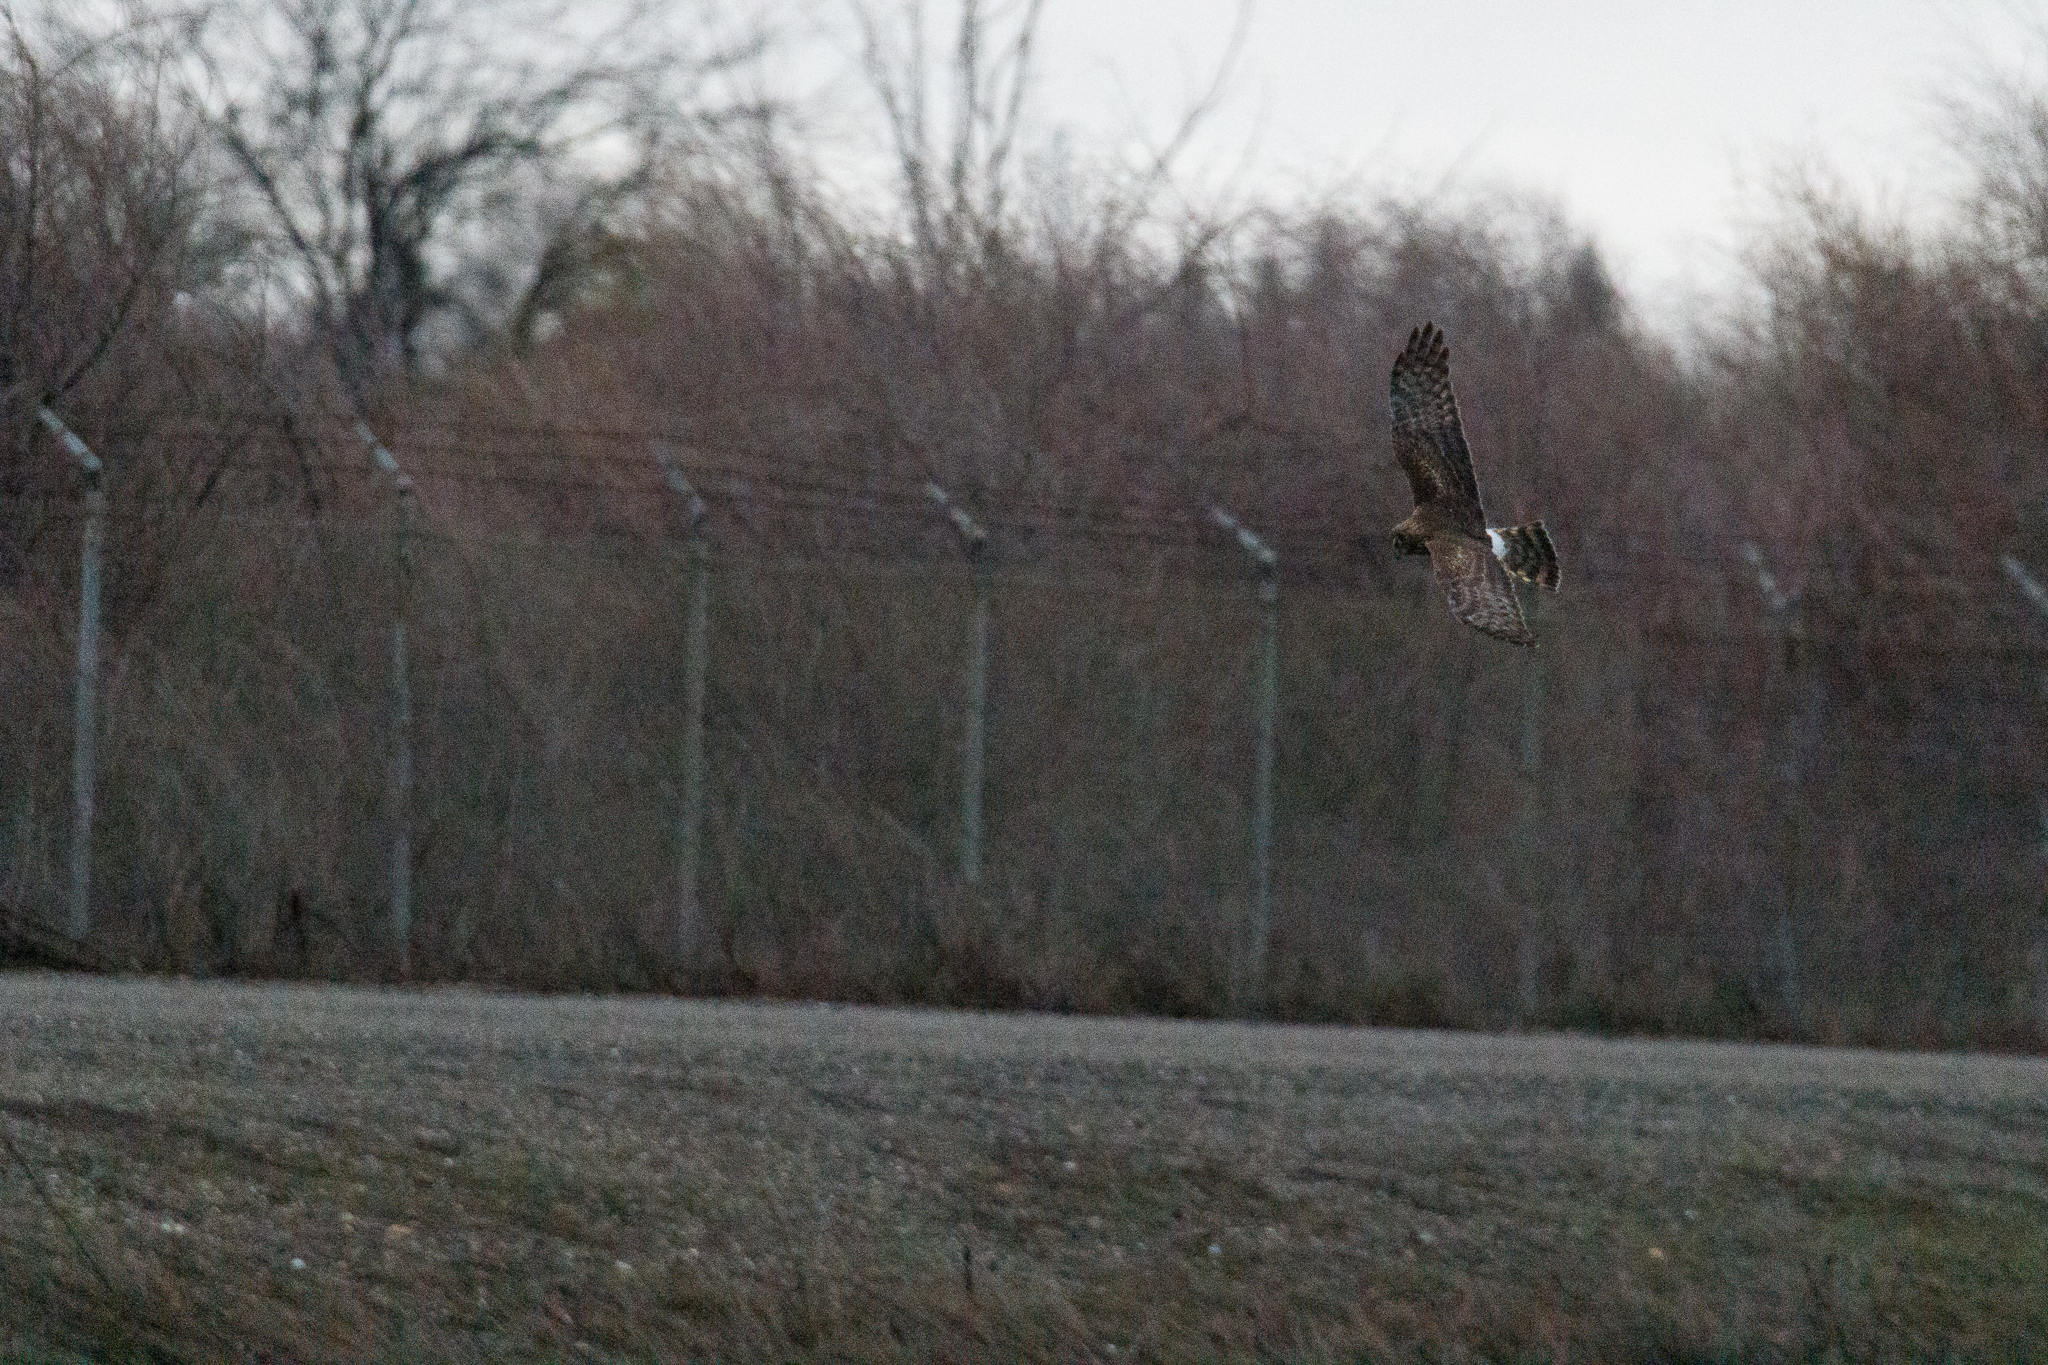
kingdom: Animalia
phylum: Chordata
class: Aves
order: Accipitriformes
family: Accipitridae
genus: Circus
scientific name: Circus cyaneus
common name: Hen harrier
